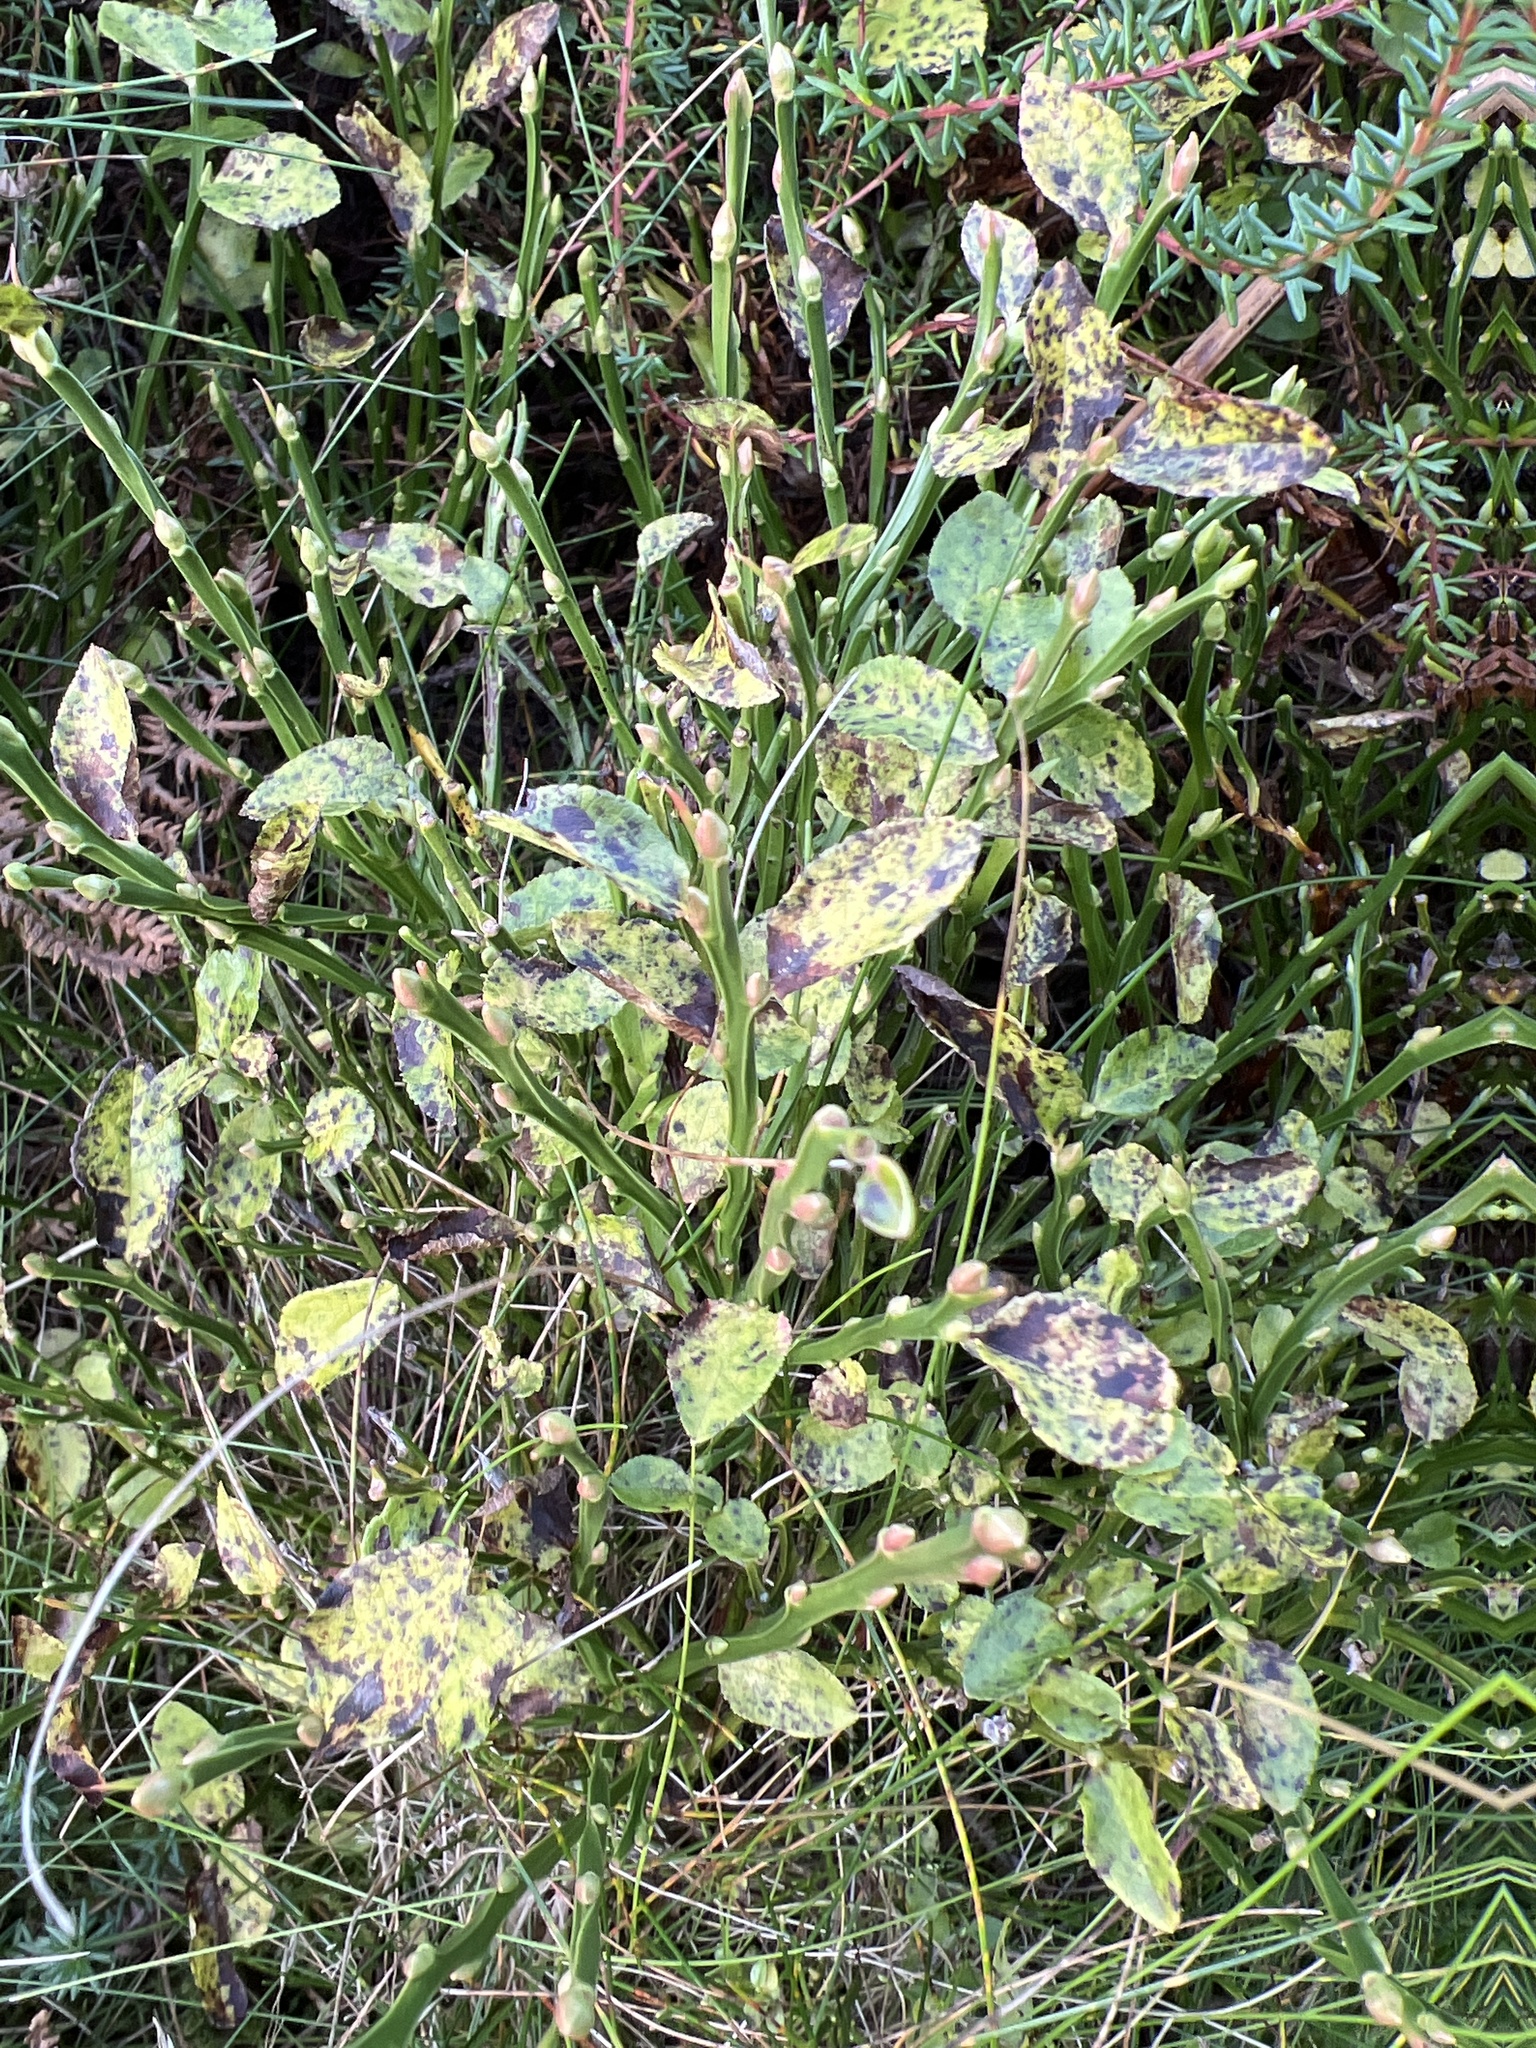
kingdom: Plantae
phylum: Tracheophyta
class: Magnoliopsida
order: Ericales
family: Ericaceae
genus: Vaccinium
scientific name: Vaccinium myrtillus
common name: Bilberry
